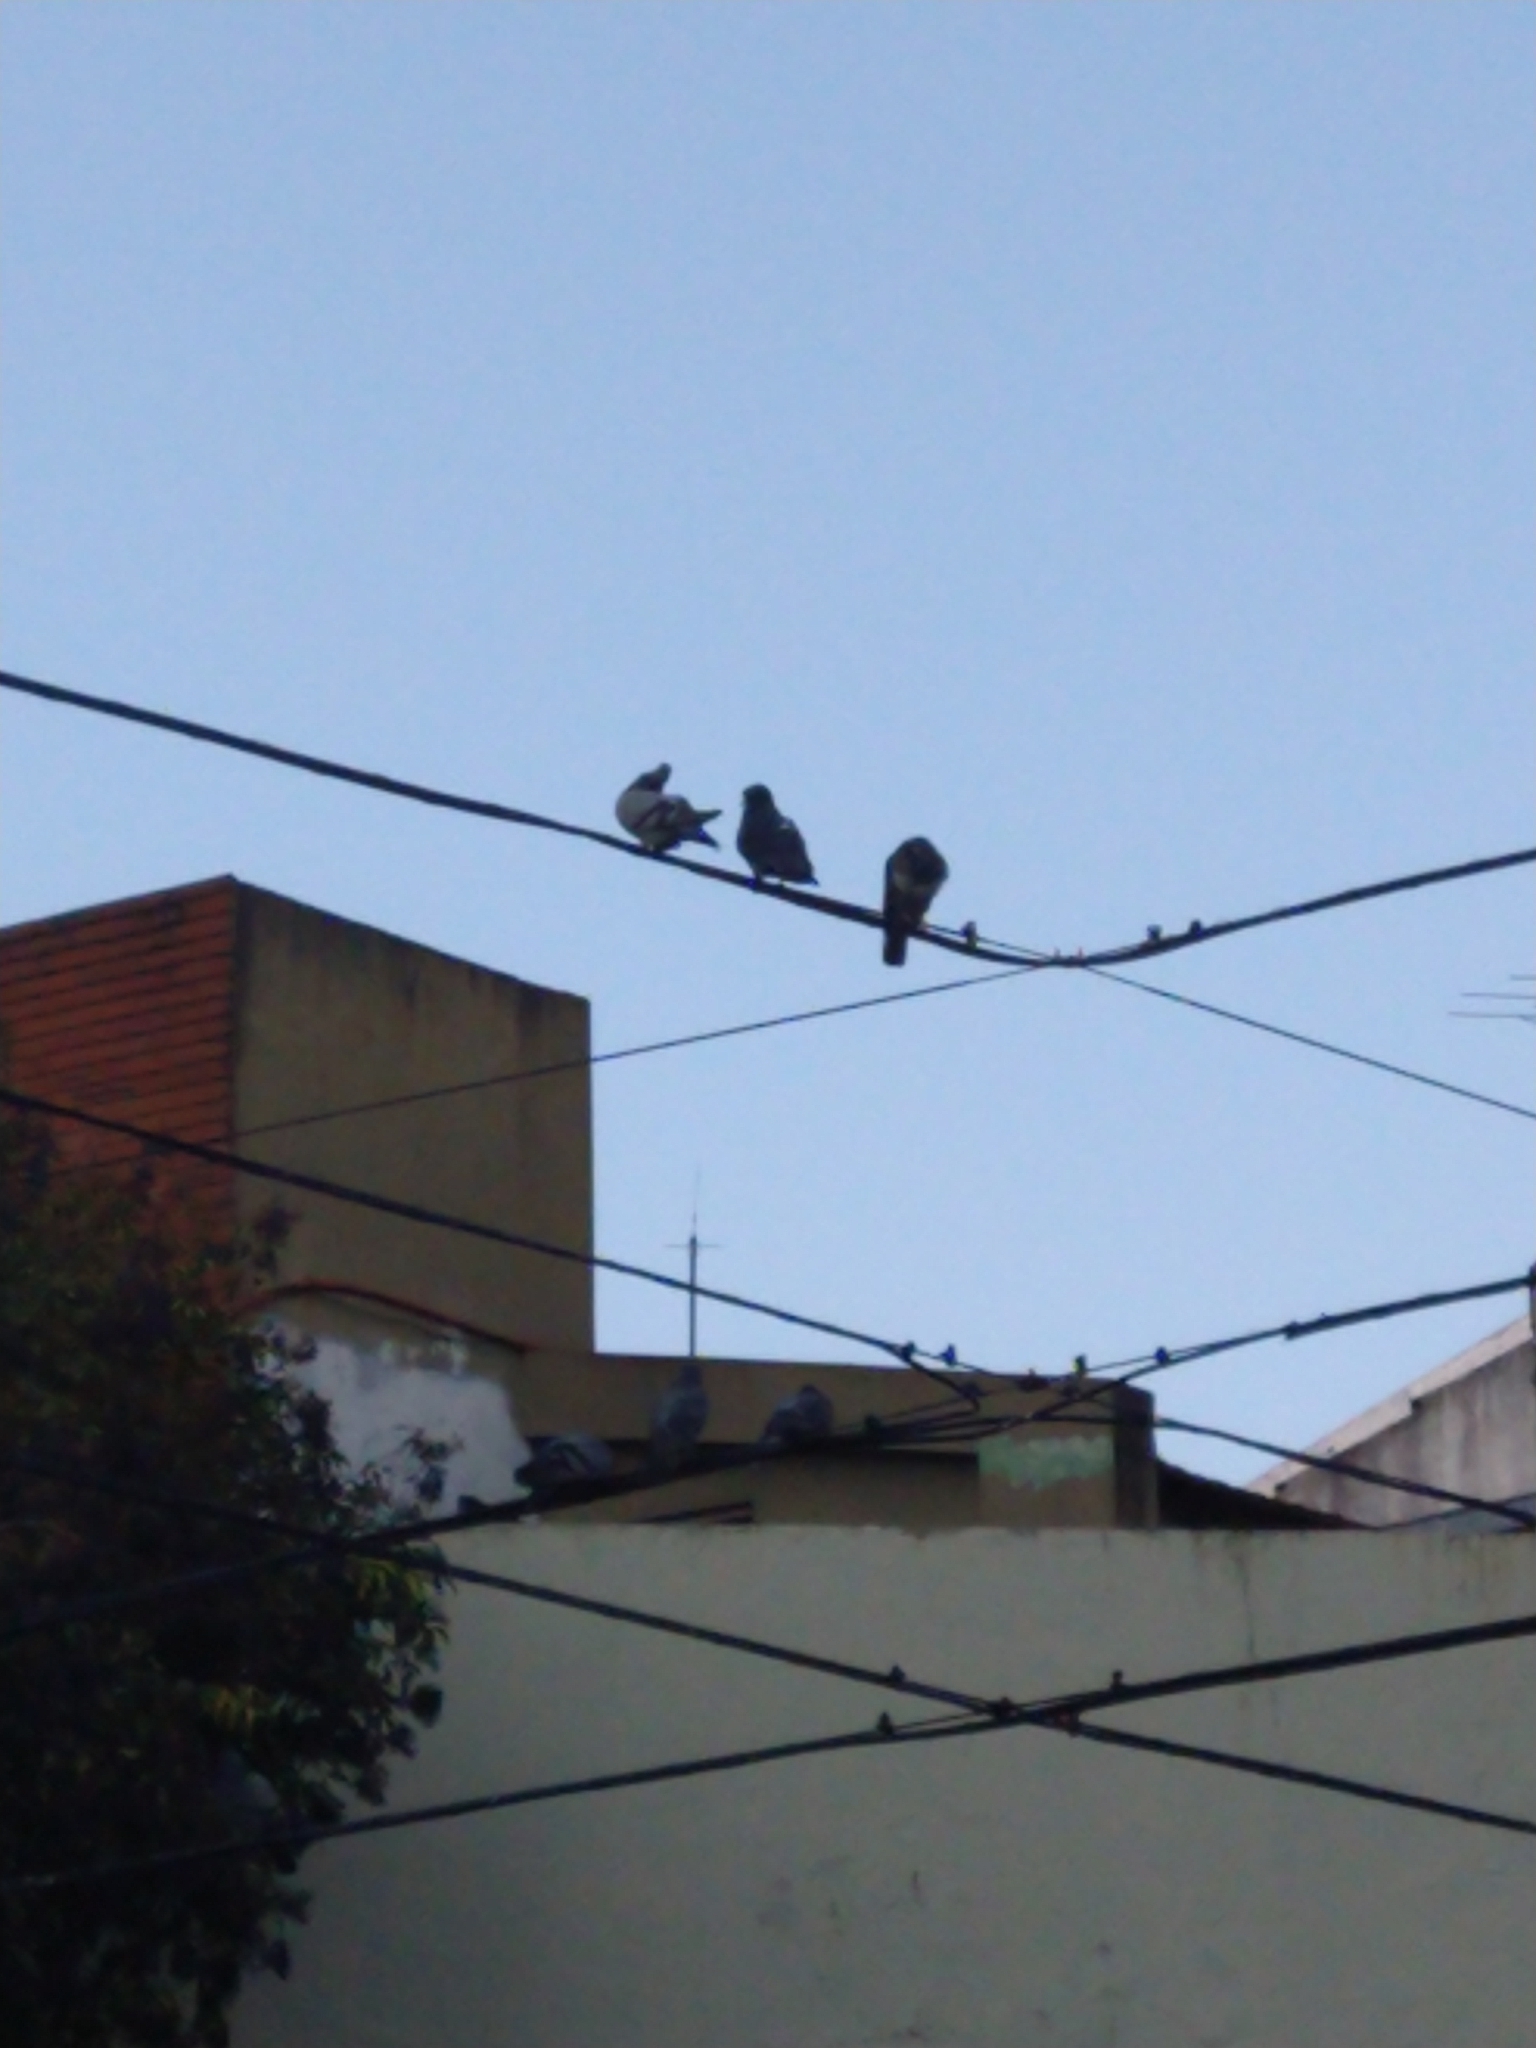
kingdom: Animalia
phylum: Chordata
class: Aves
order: Columbiformes
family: Columbidae
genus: Columba
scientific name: Columba livia
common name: Rock pigeon
